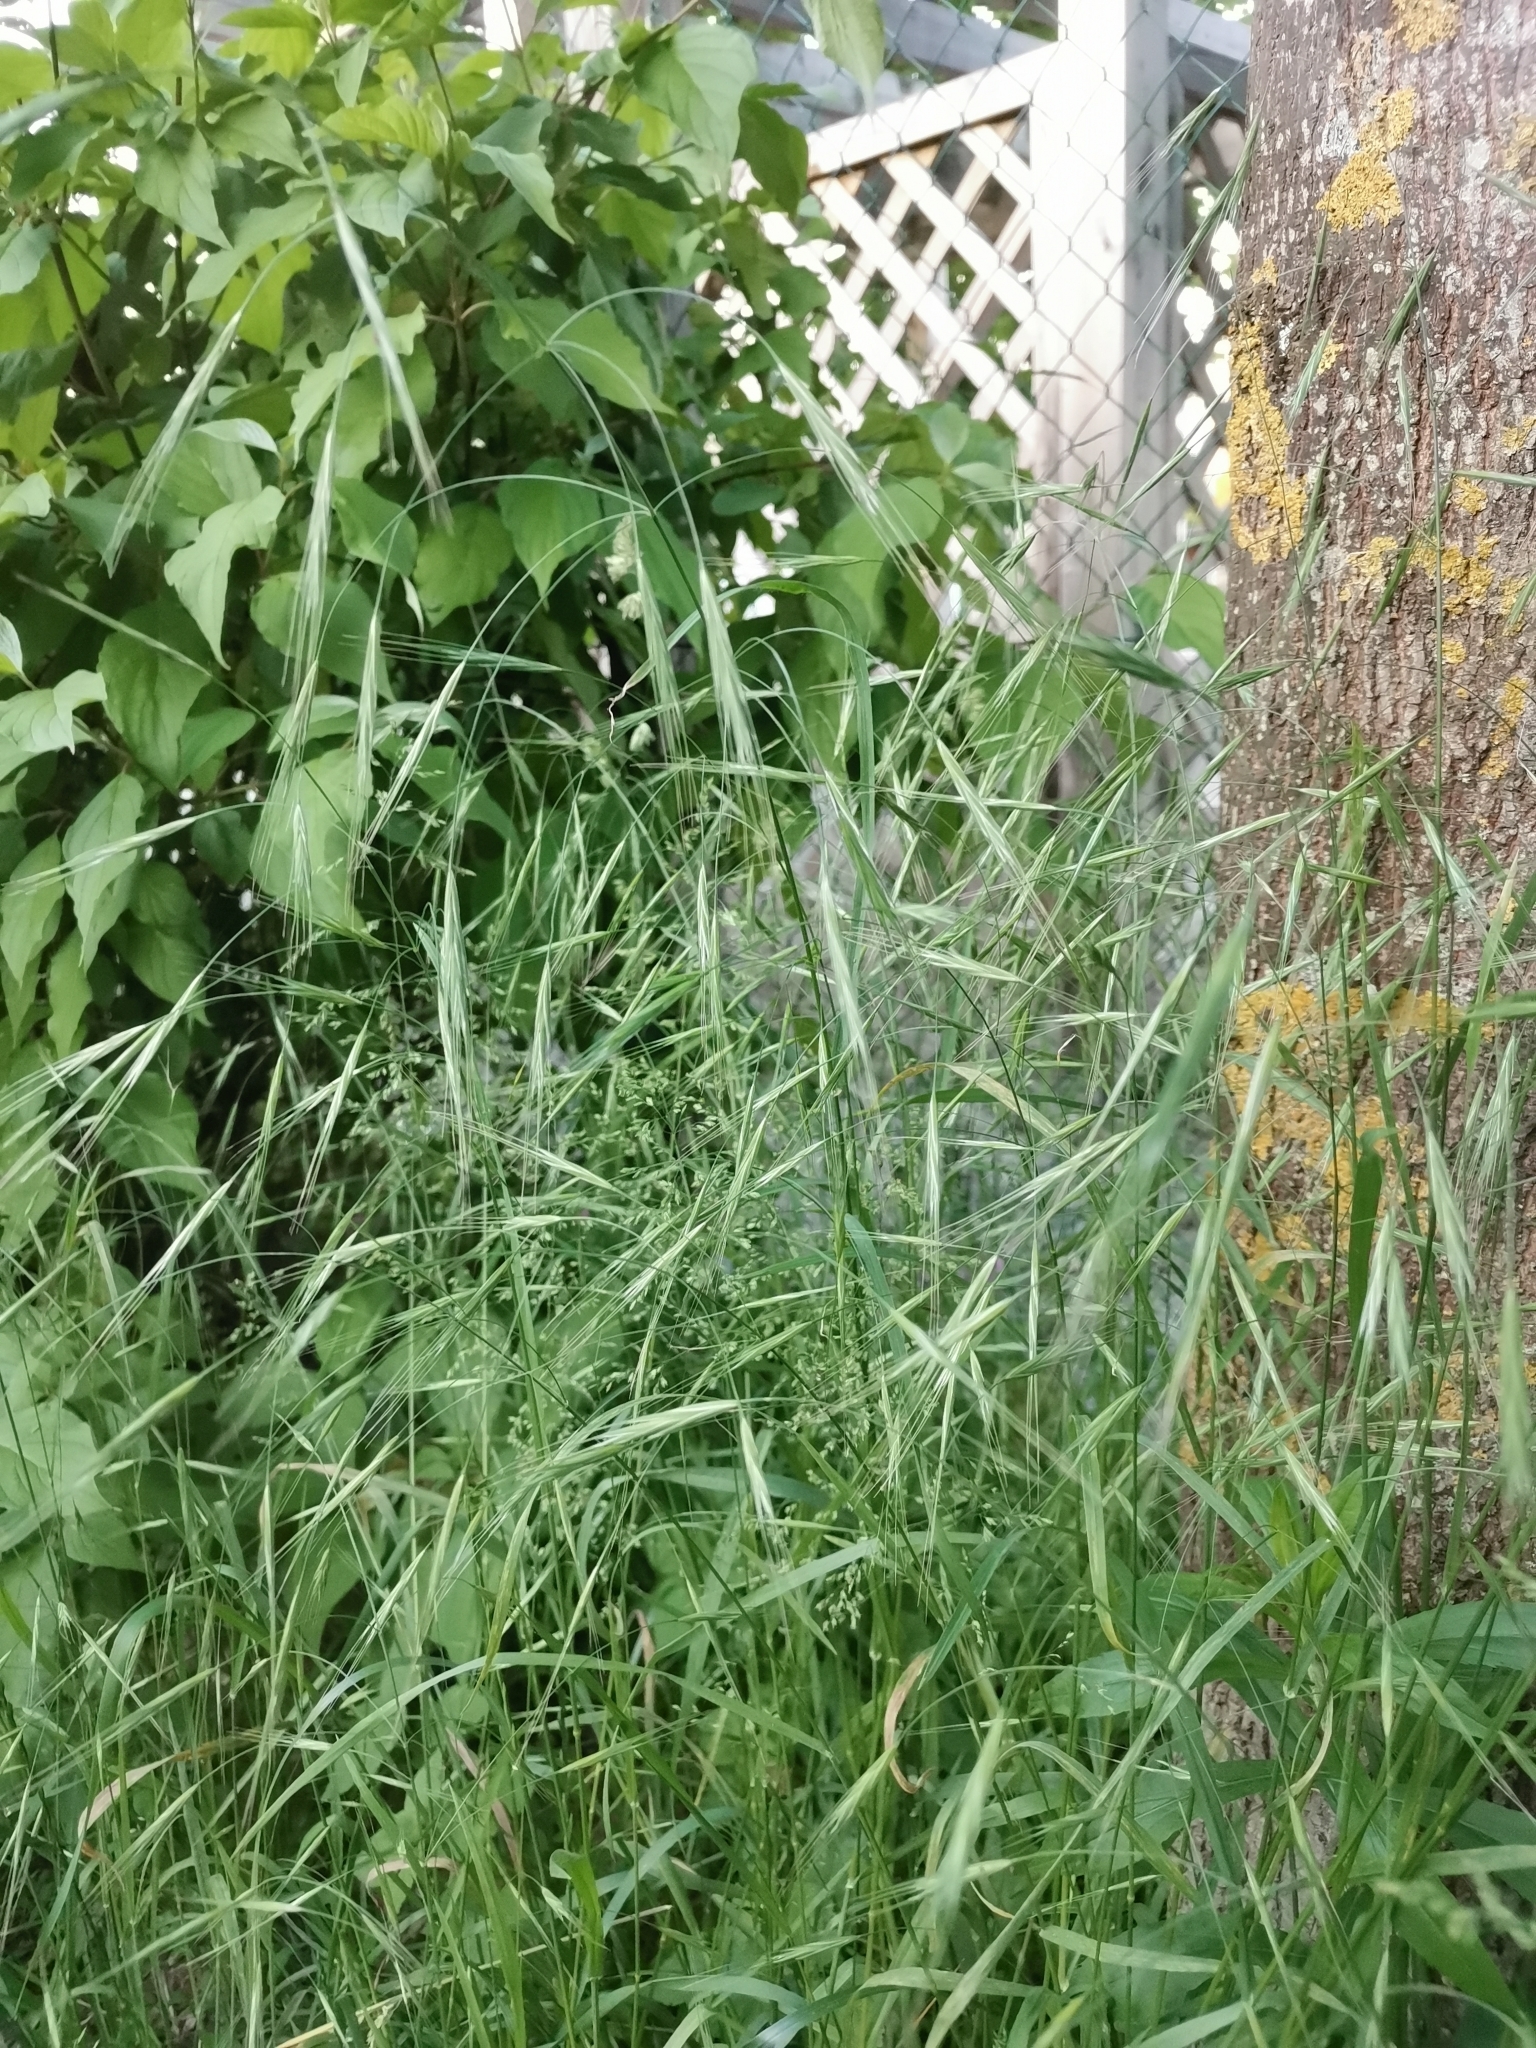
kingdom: Plantae
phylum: Tracheophyta
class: Liliopsida
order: Poales
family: Poaceae
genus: Bromus
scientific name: Bromus sterilis
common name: Poverty brome
